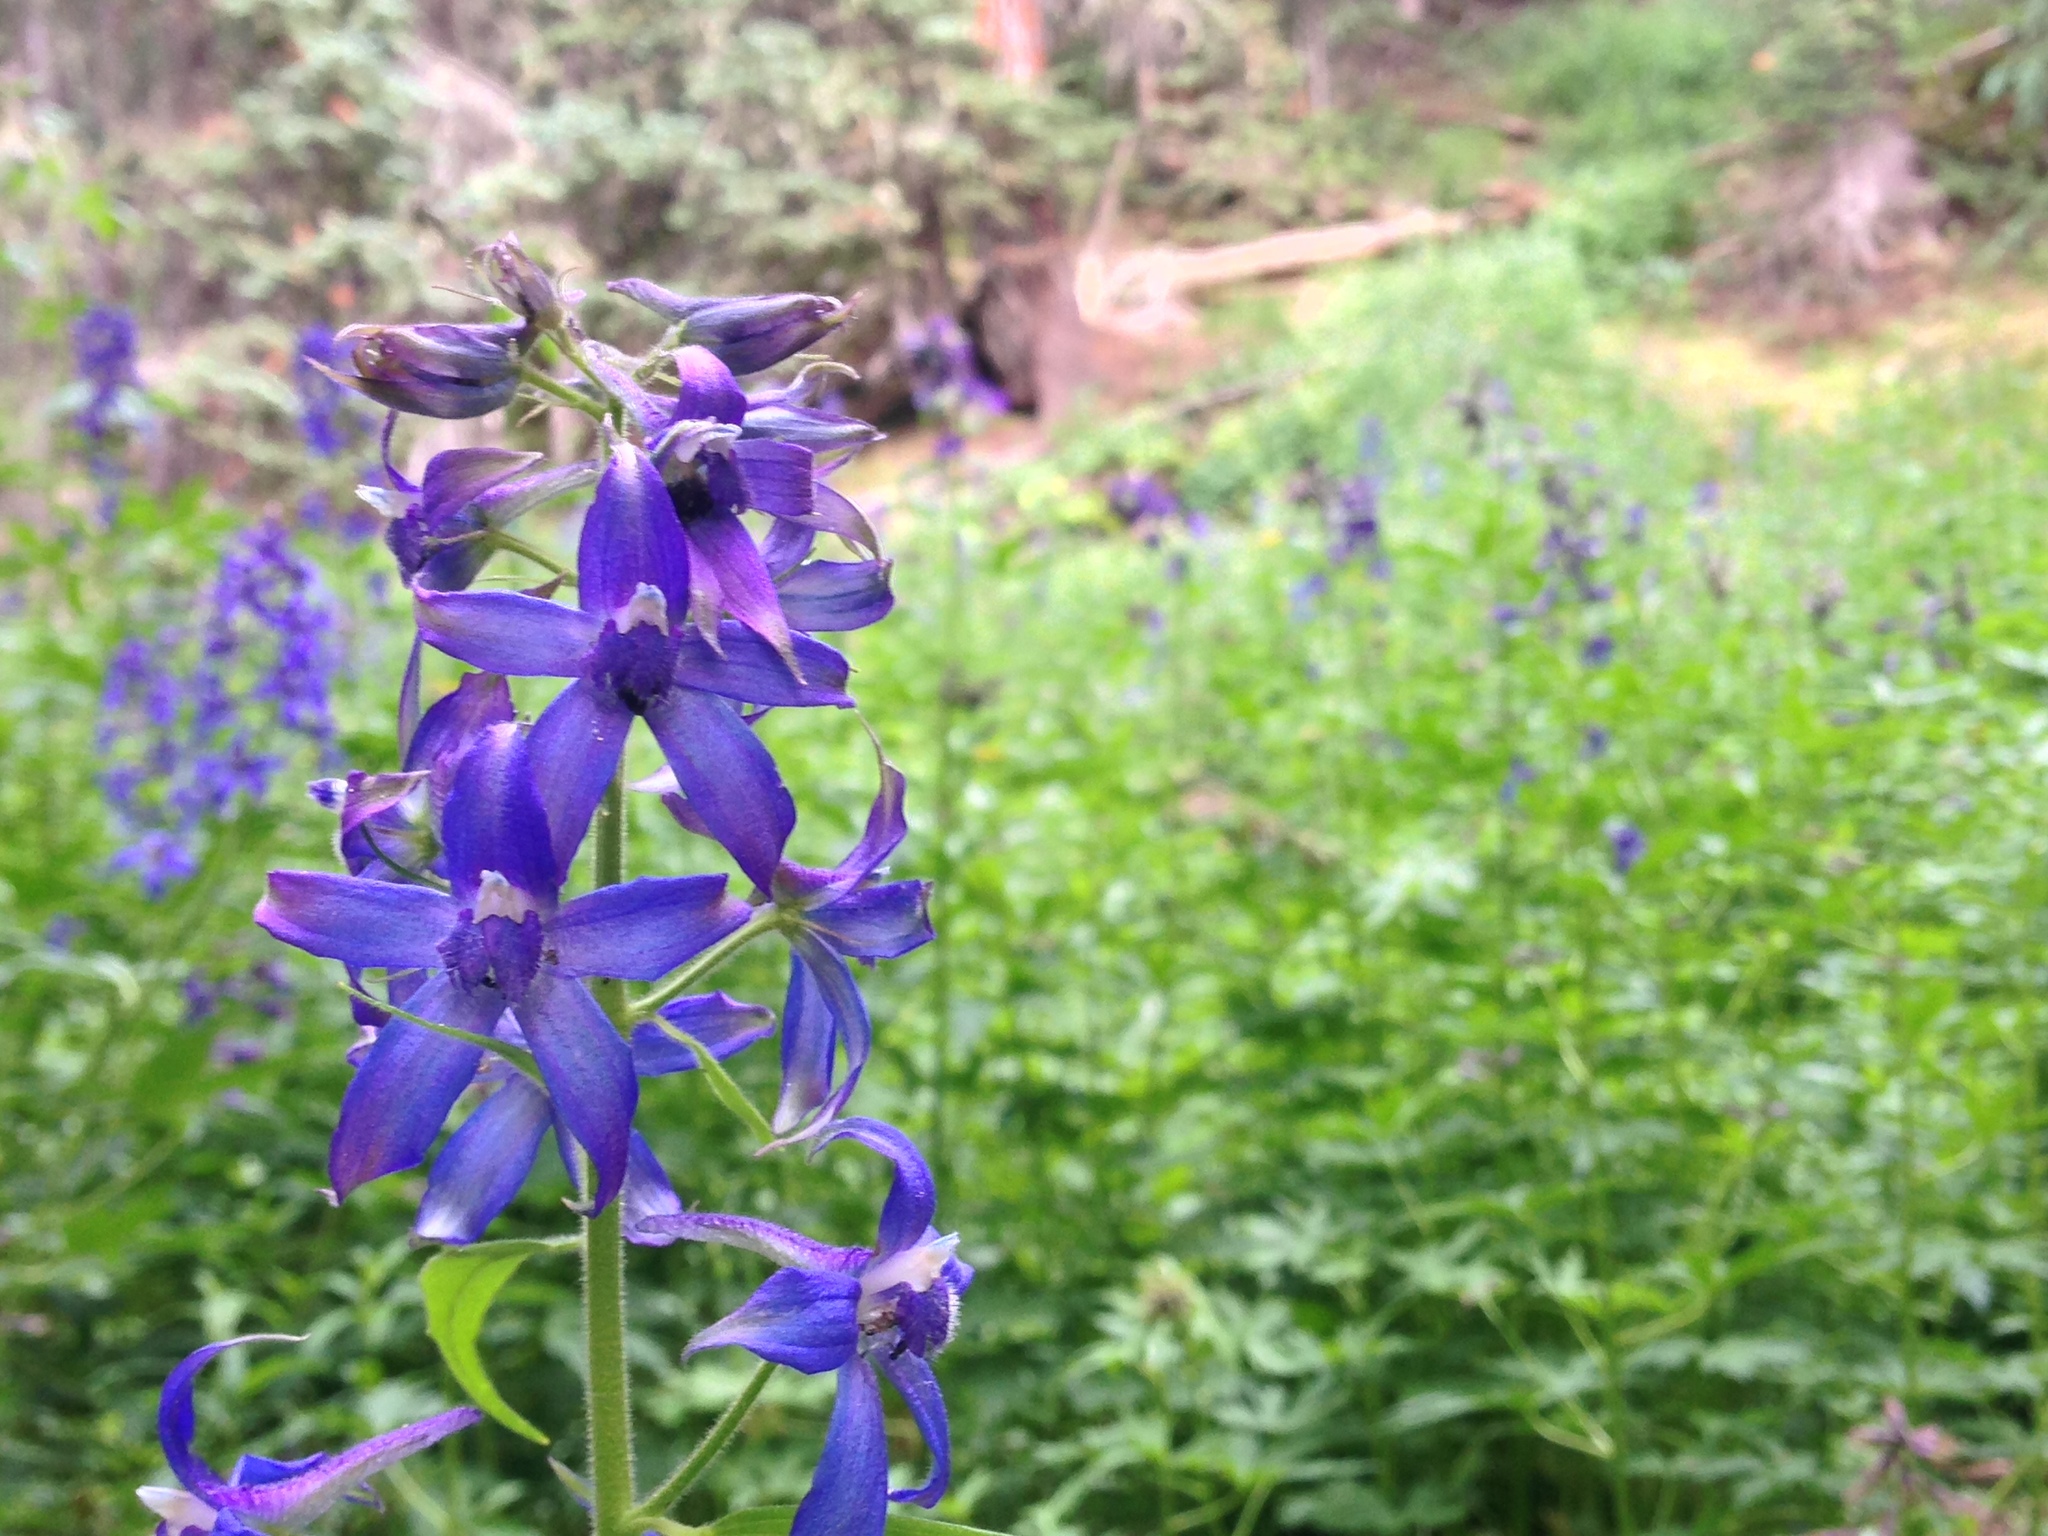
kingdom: Plantae
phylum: Tracheophyta
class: Magnoliopsida
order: Ranunculales
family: Ranunculaceae
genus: Delphinium
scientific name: Delphinium barbeyi
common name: Subalpine larkspur
